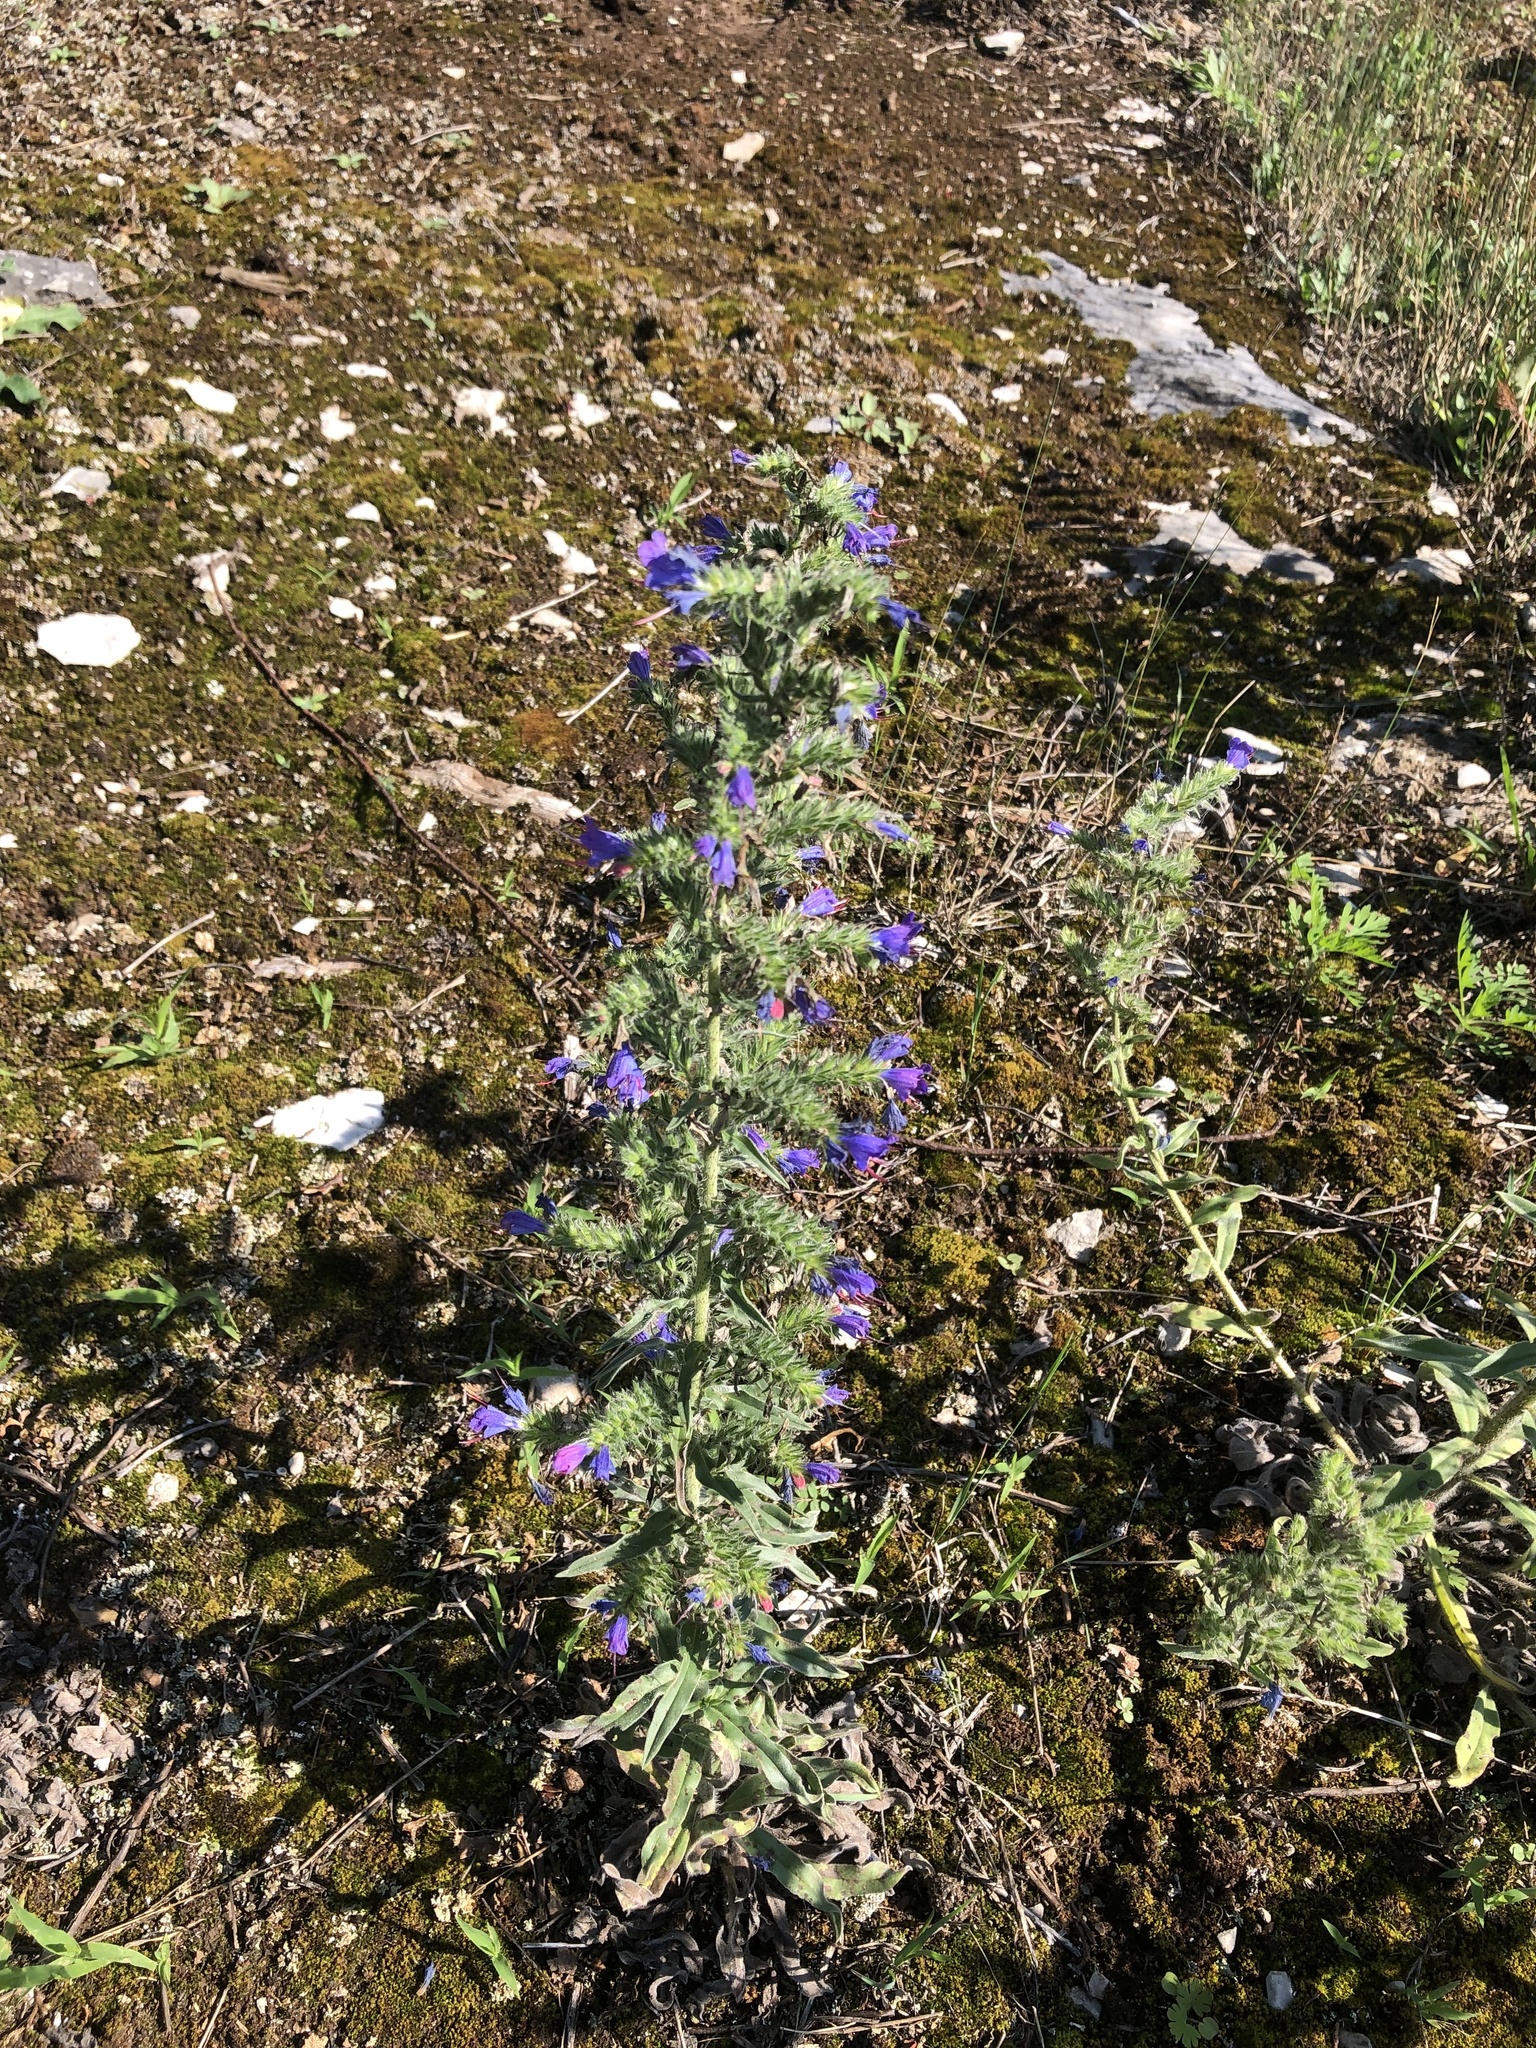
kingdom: Plantae
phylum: Tracheophyta
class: Magnoliopsida
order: Boraginales
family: Boraginaceae
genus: Echium
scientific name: Echium vulgare
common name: Common viper's bugloss
